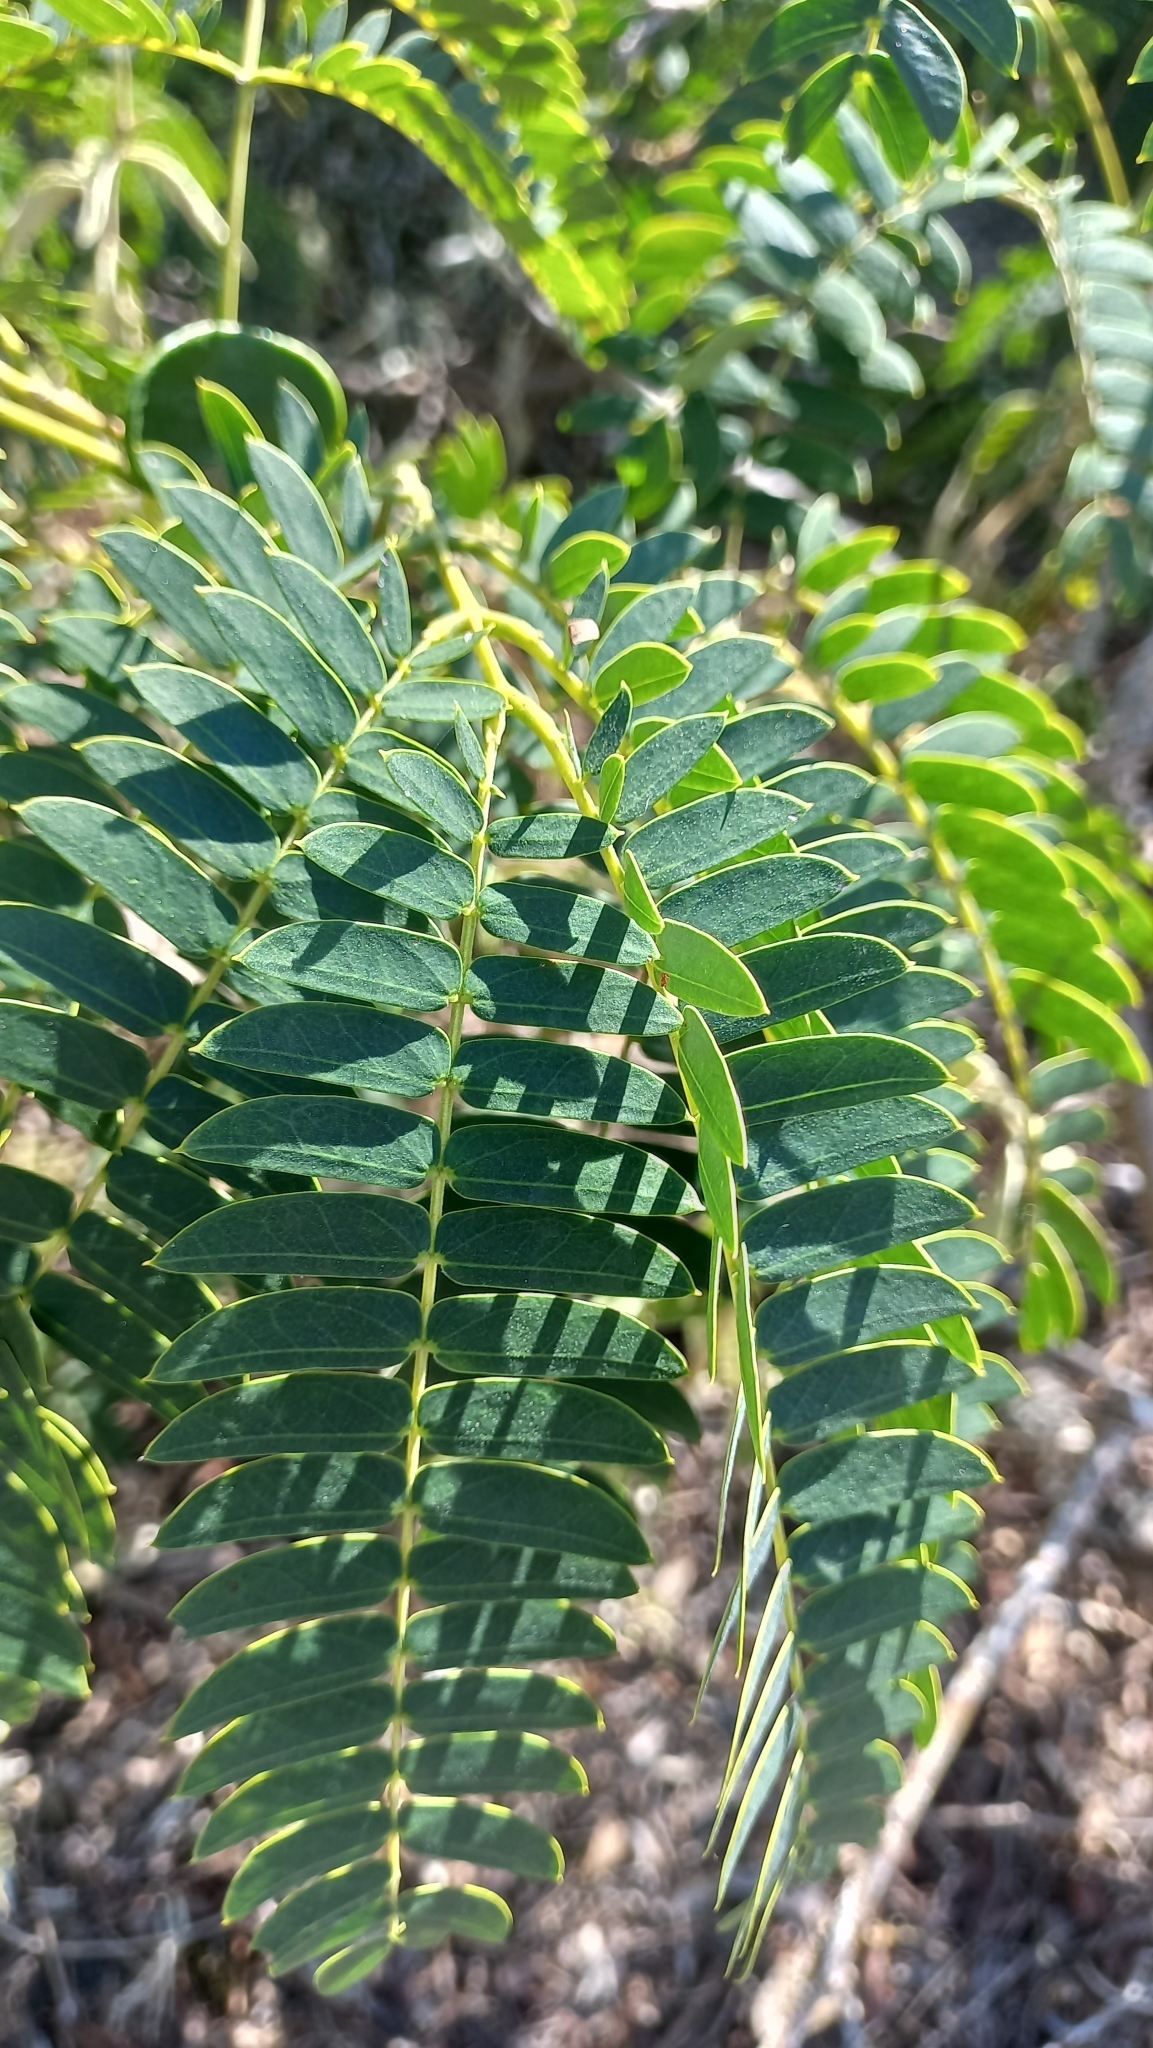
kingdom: Plantae
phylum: Tracheophyta
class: Magnoliopsida
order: Fabales
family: Fabaceae
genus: Enterolobium
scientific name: Enterolobium contortisiliquum
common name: Pacara earpod tree
